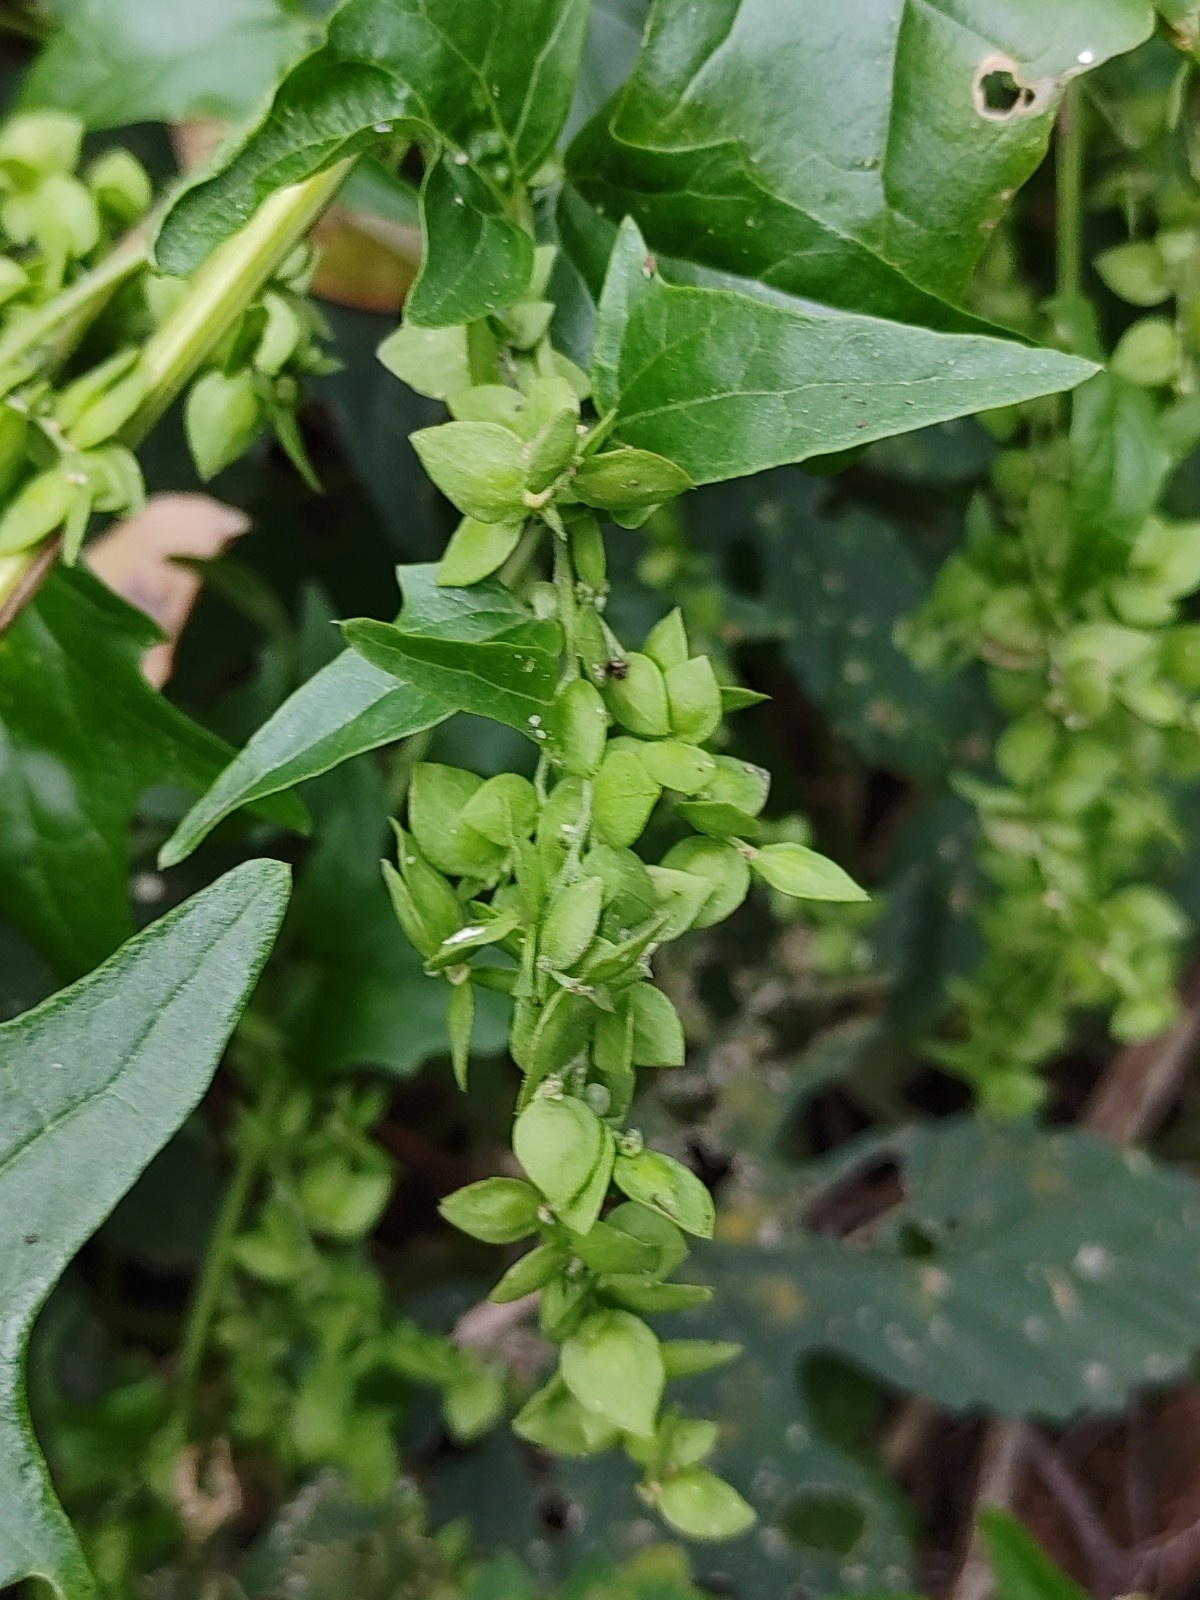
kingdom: Plantae
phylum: Tracheophyta
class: Magnoliopsida
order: Caryophyllales
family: Amaranthaceae
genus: Atriplex
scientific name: Atriplex sagittata
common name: Purple orache
